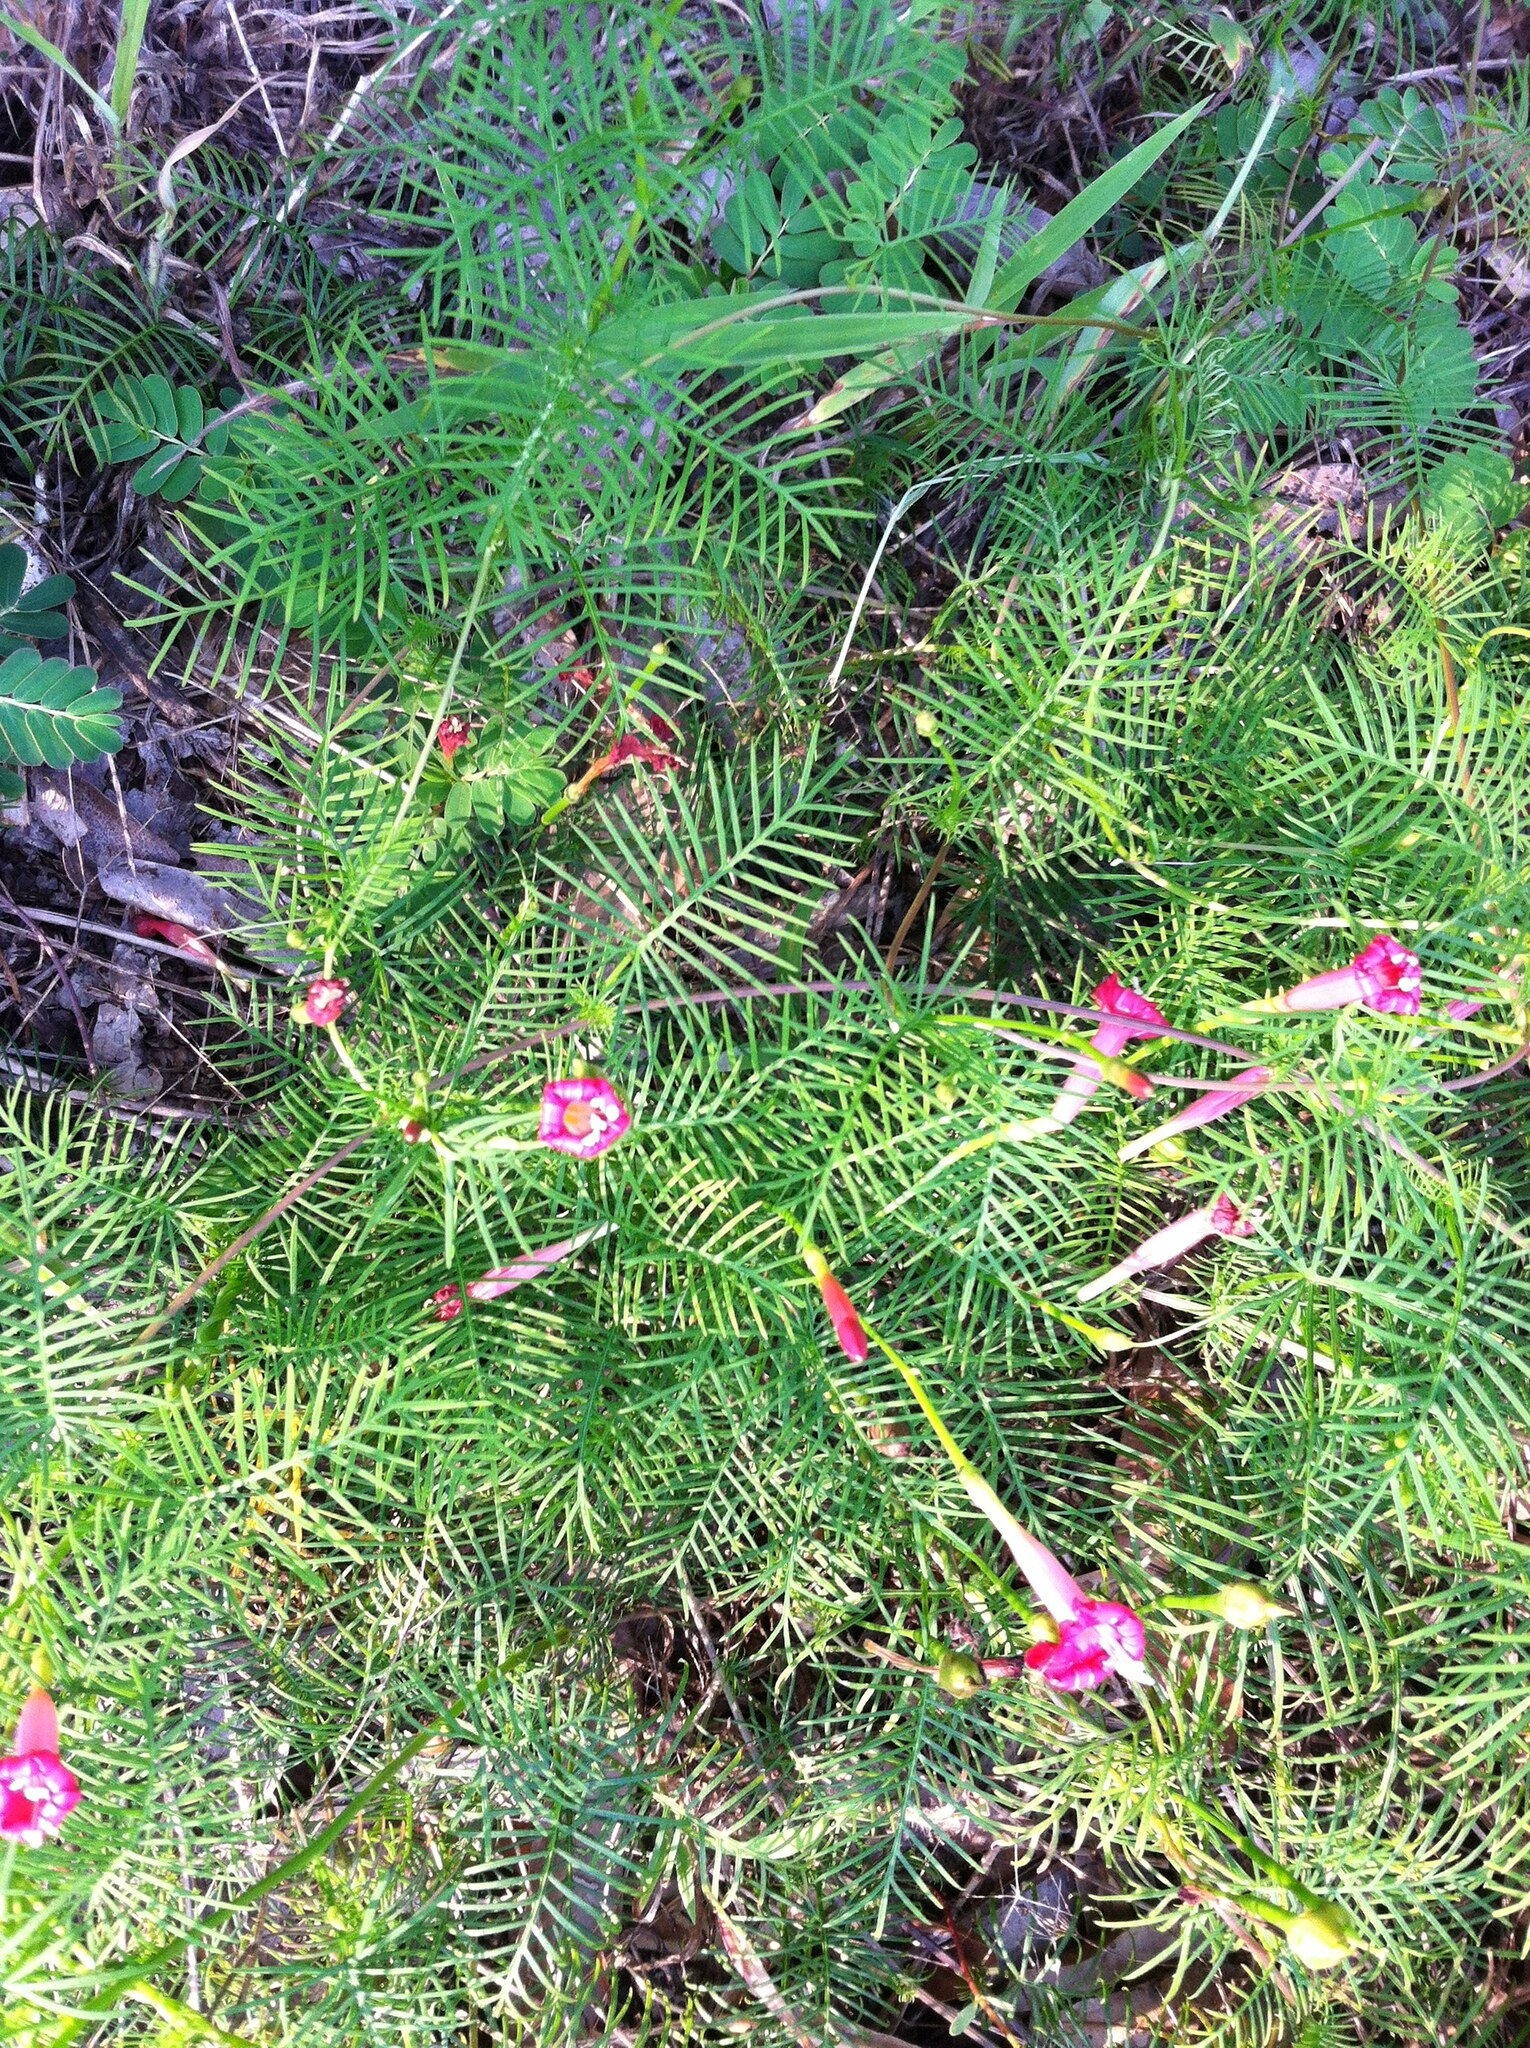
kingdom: Plantae
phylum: Tracheophyta
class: Magnoliopsida
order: Solanales
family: Convolvulaceae
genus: Ipomoea
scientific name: Ipomoea quamoclit
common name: Cypress vine
